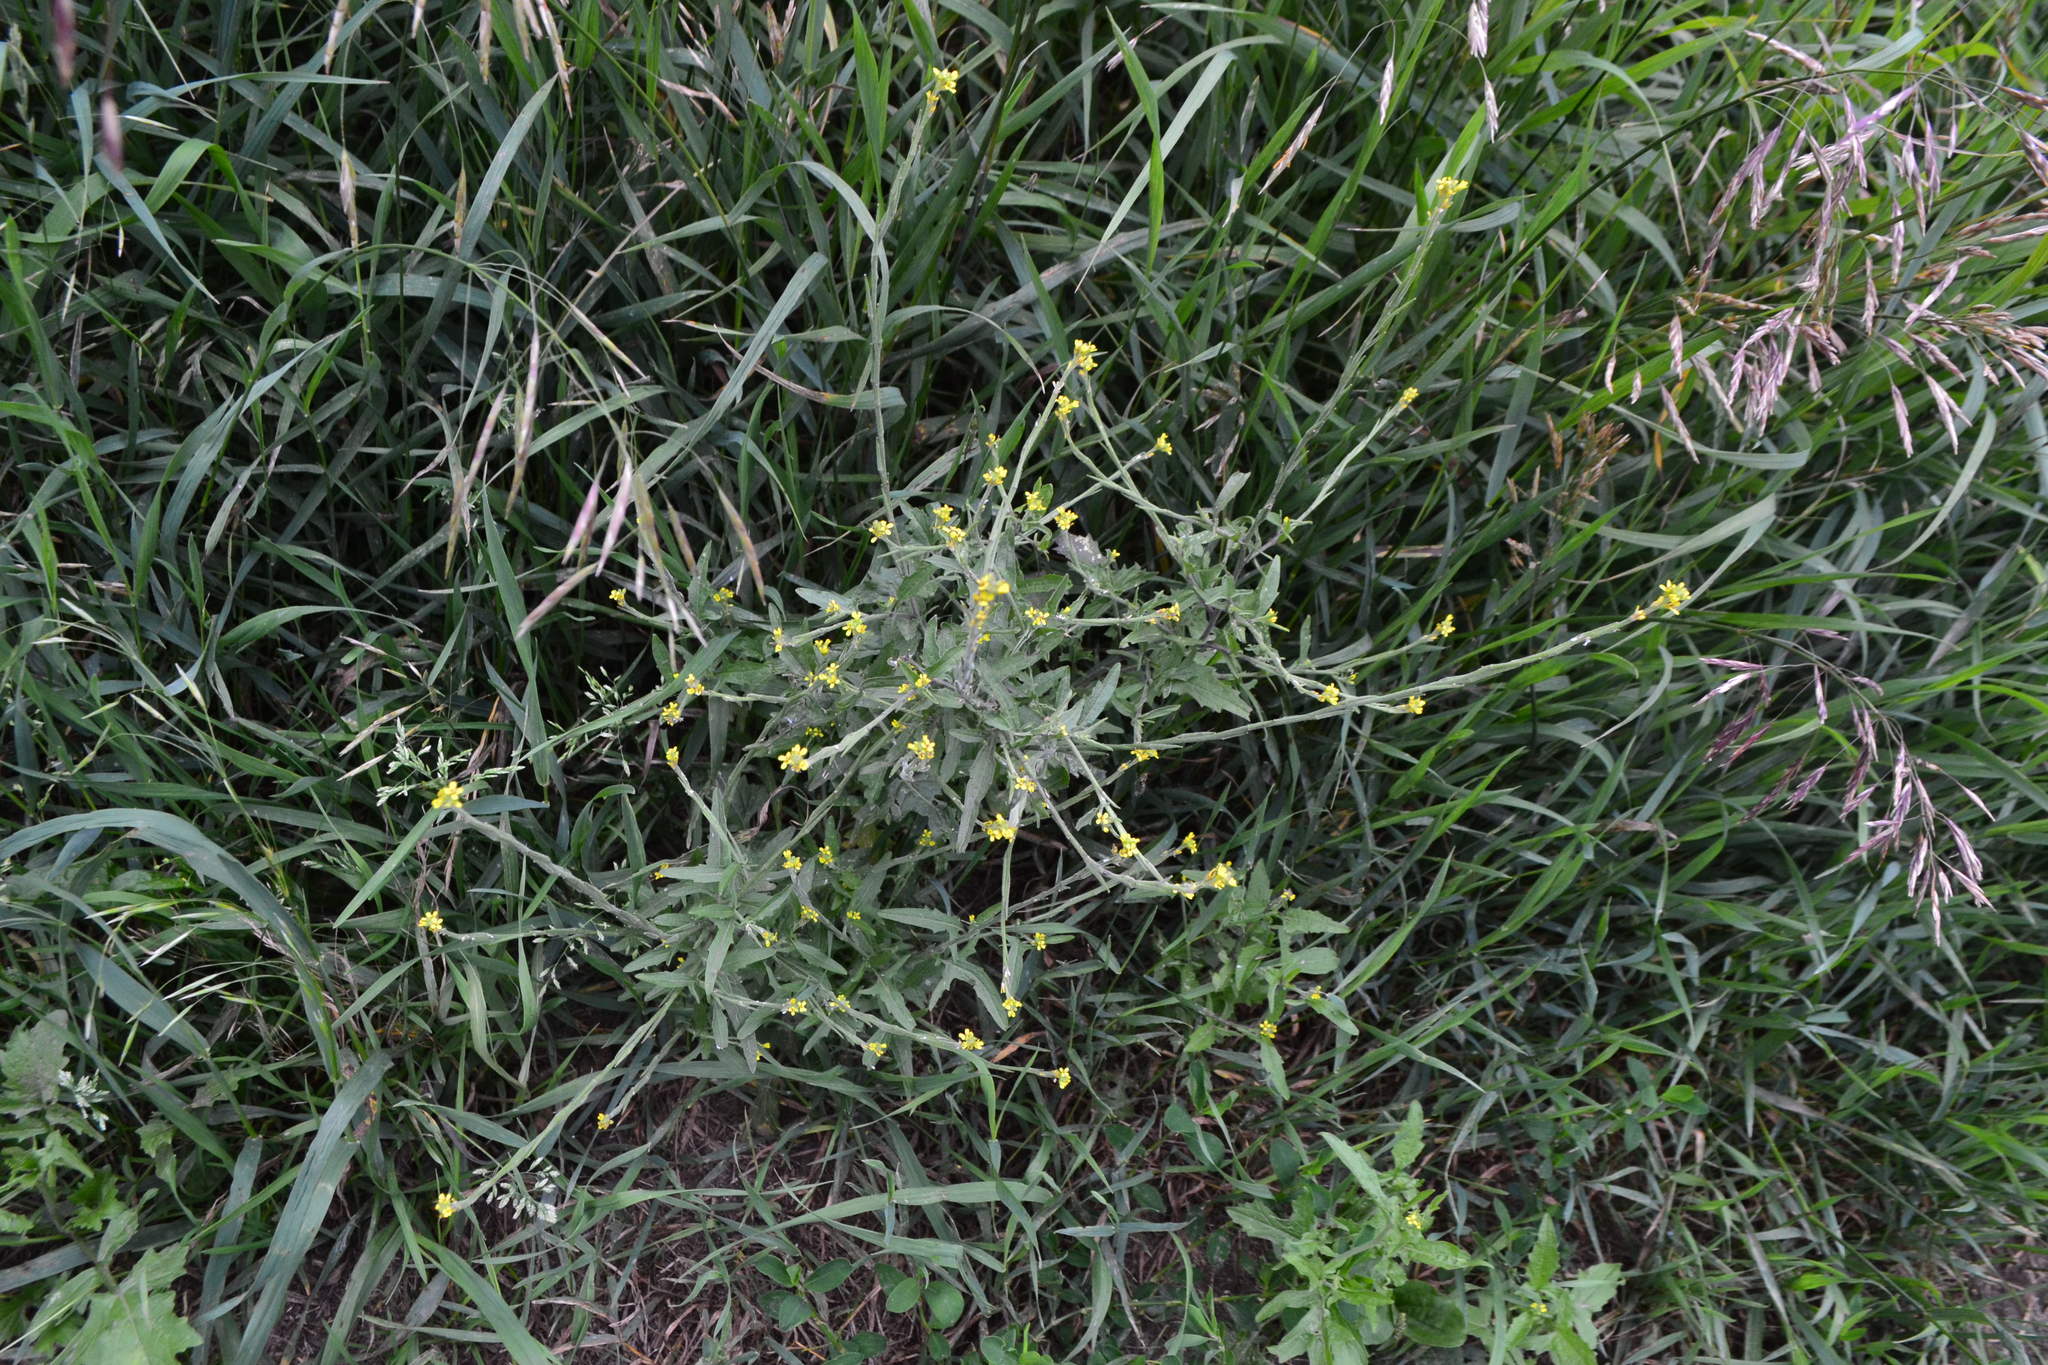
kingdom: Plantae
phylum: Tracheophyta
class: Magnoliopsida
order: Brassicales
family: Brassicaceae
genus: Sisymbrium
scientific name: Sisymbrium officinale
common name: Hedge mustard
